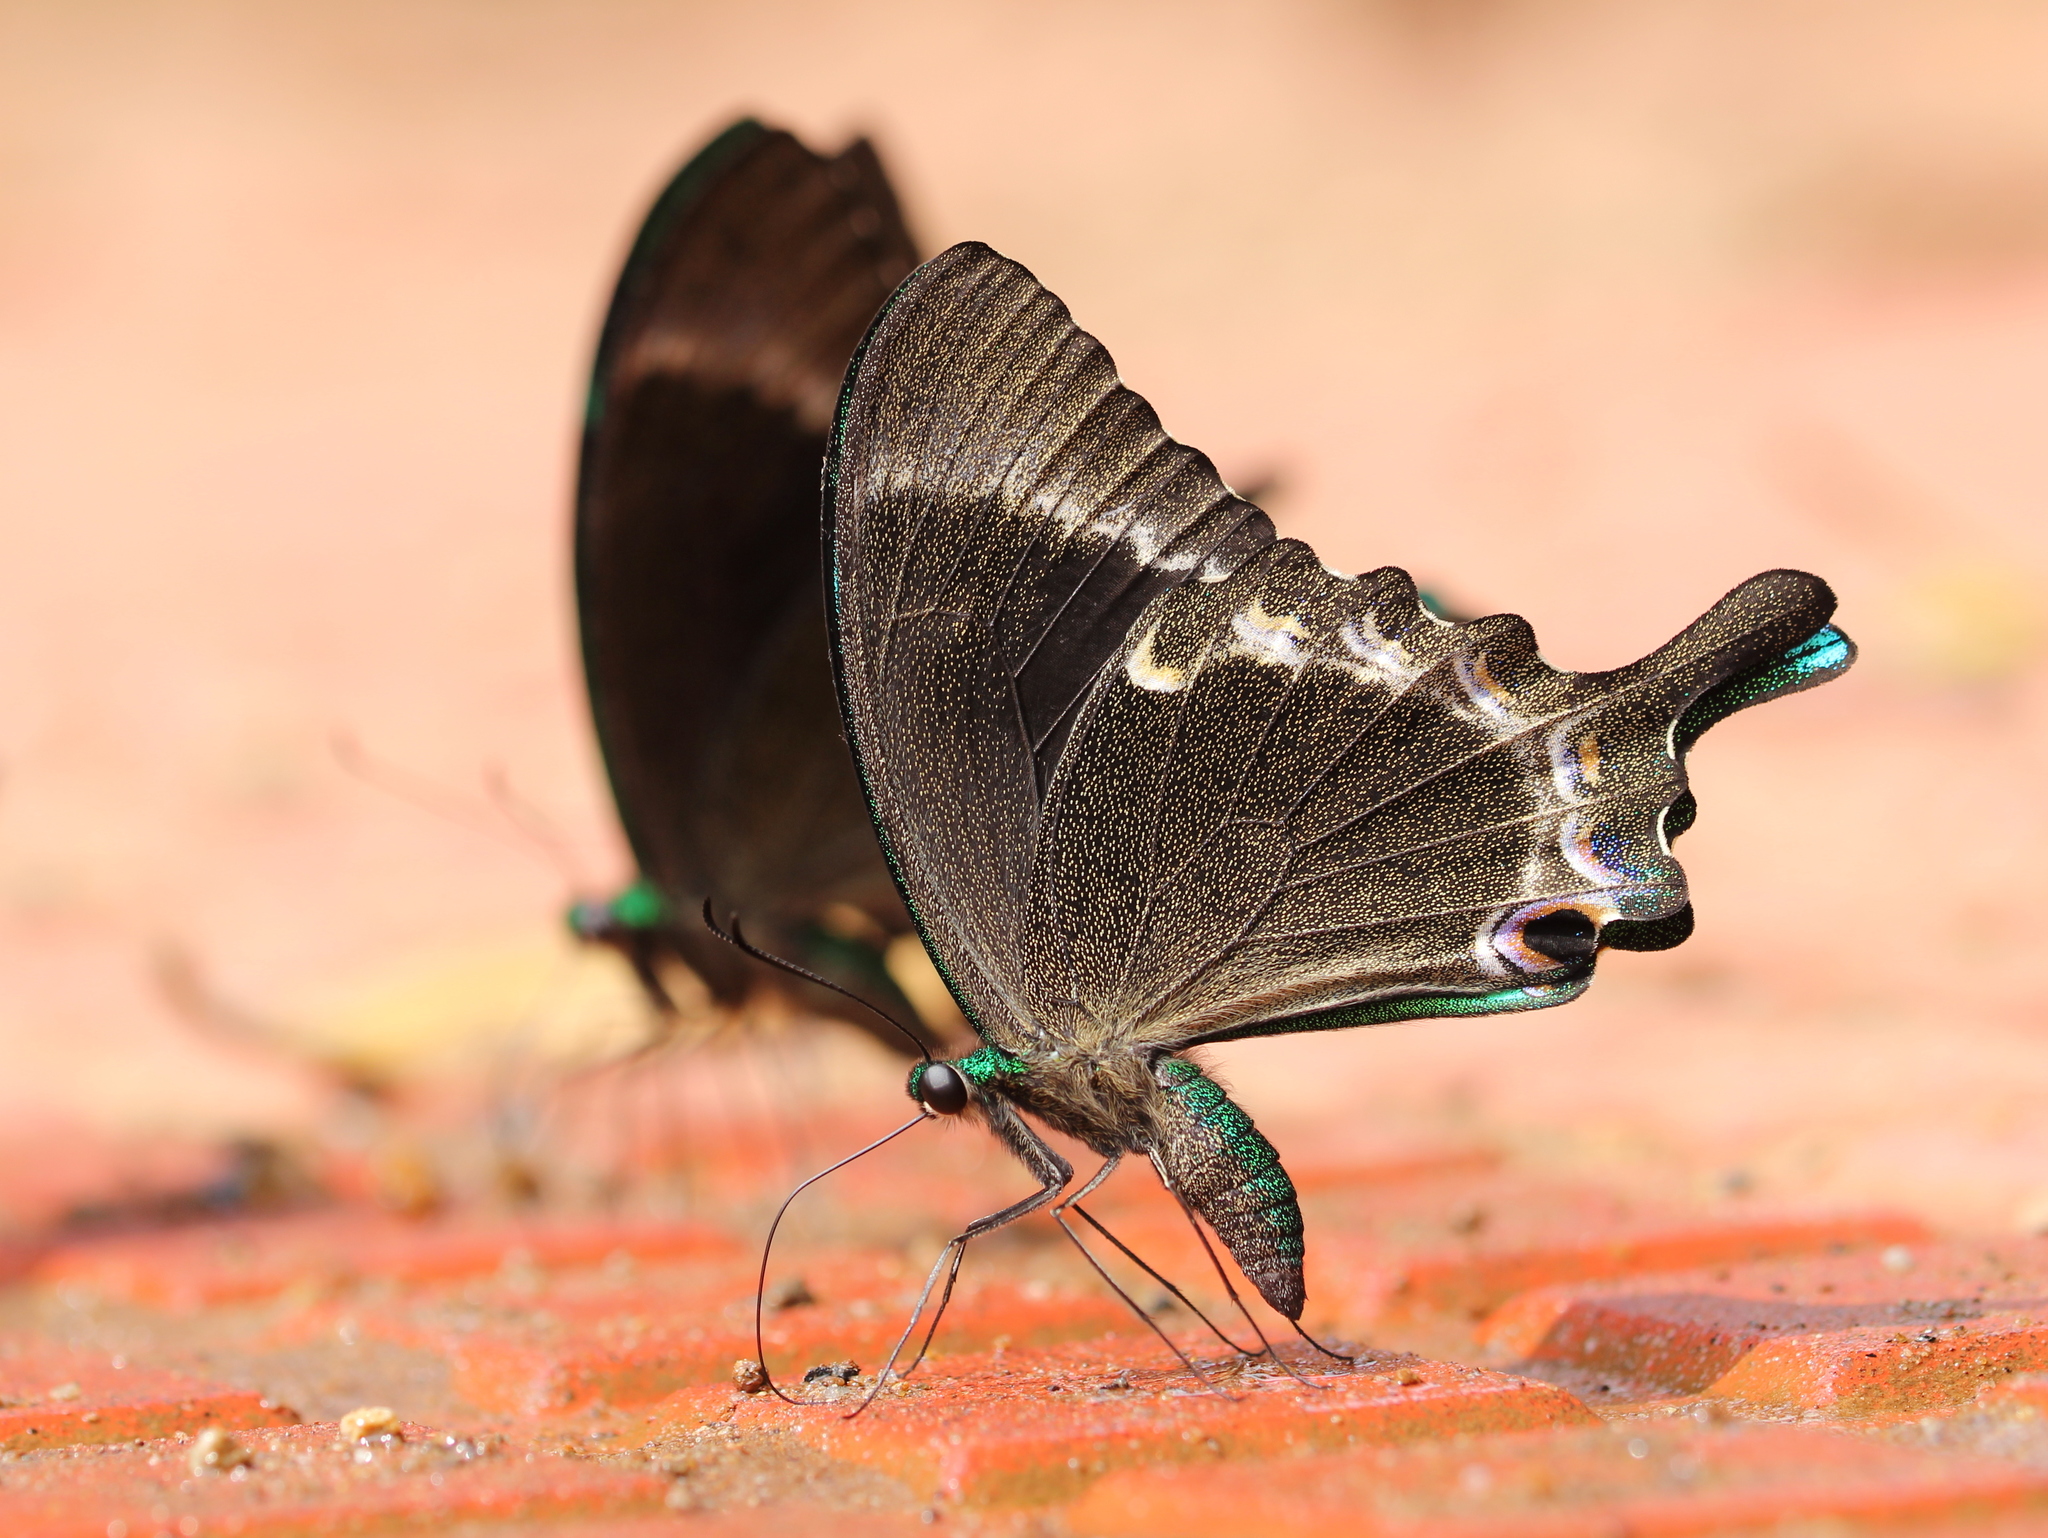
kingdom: Animalia
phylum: Arthropoda
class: Insecta
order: Lepidoptera
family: Papilionidae
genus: Papilio
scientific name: Papilio crino
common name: Common banded peacock
